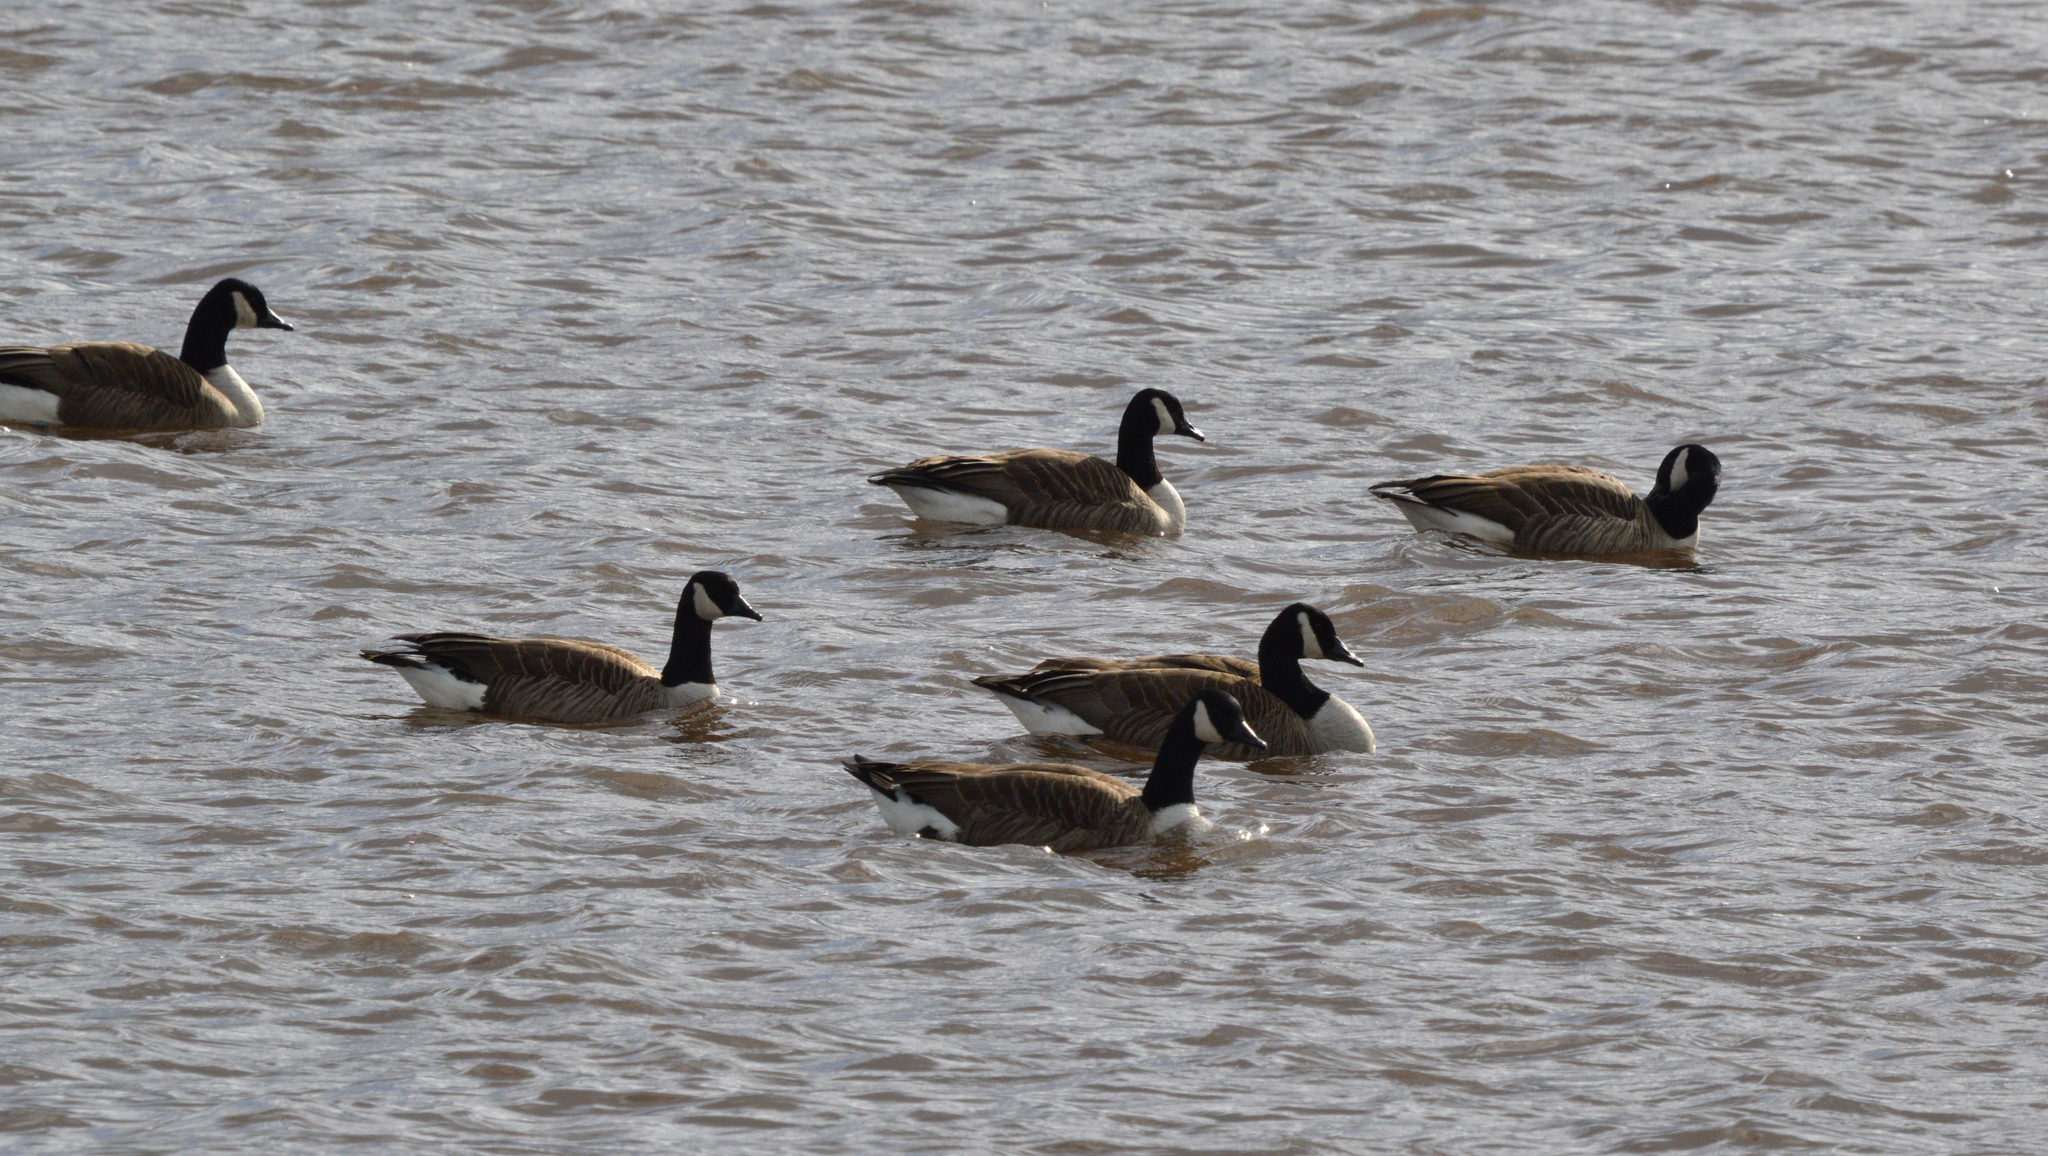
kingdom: Animalia
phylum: Chordata
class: Aves
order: Anseriformes
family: Anatidae
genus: Branta
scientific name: Branta canadensis
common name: Canada goose
